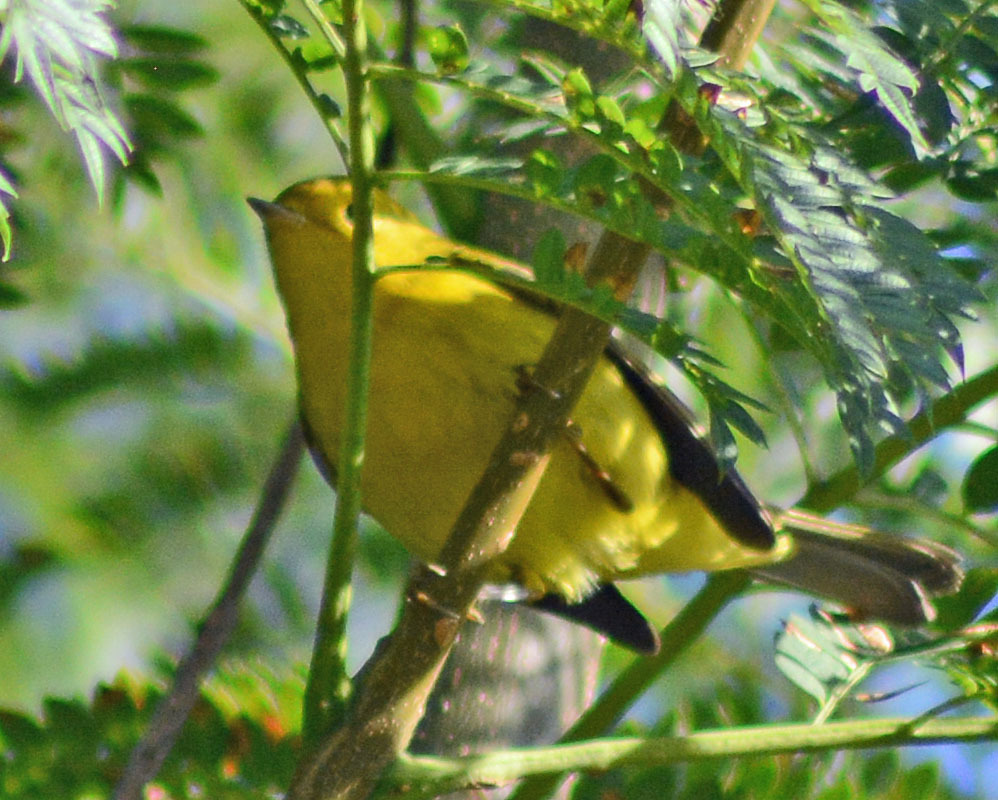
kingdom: Animalia
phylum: Chordata
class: Aves
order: Passeriformes
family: Parulidae
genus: Cardellina
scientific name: Cardellina pusilla
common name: Wilson's warbler
